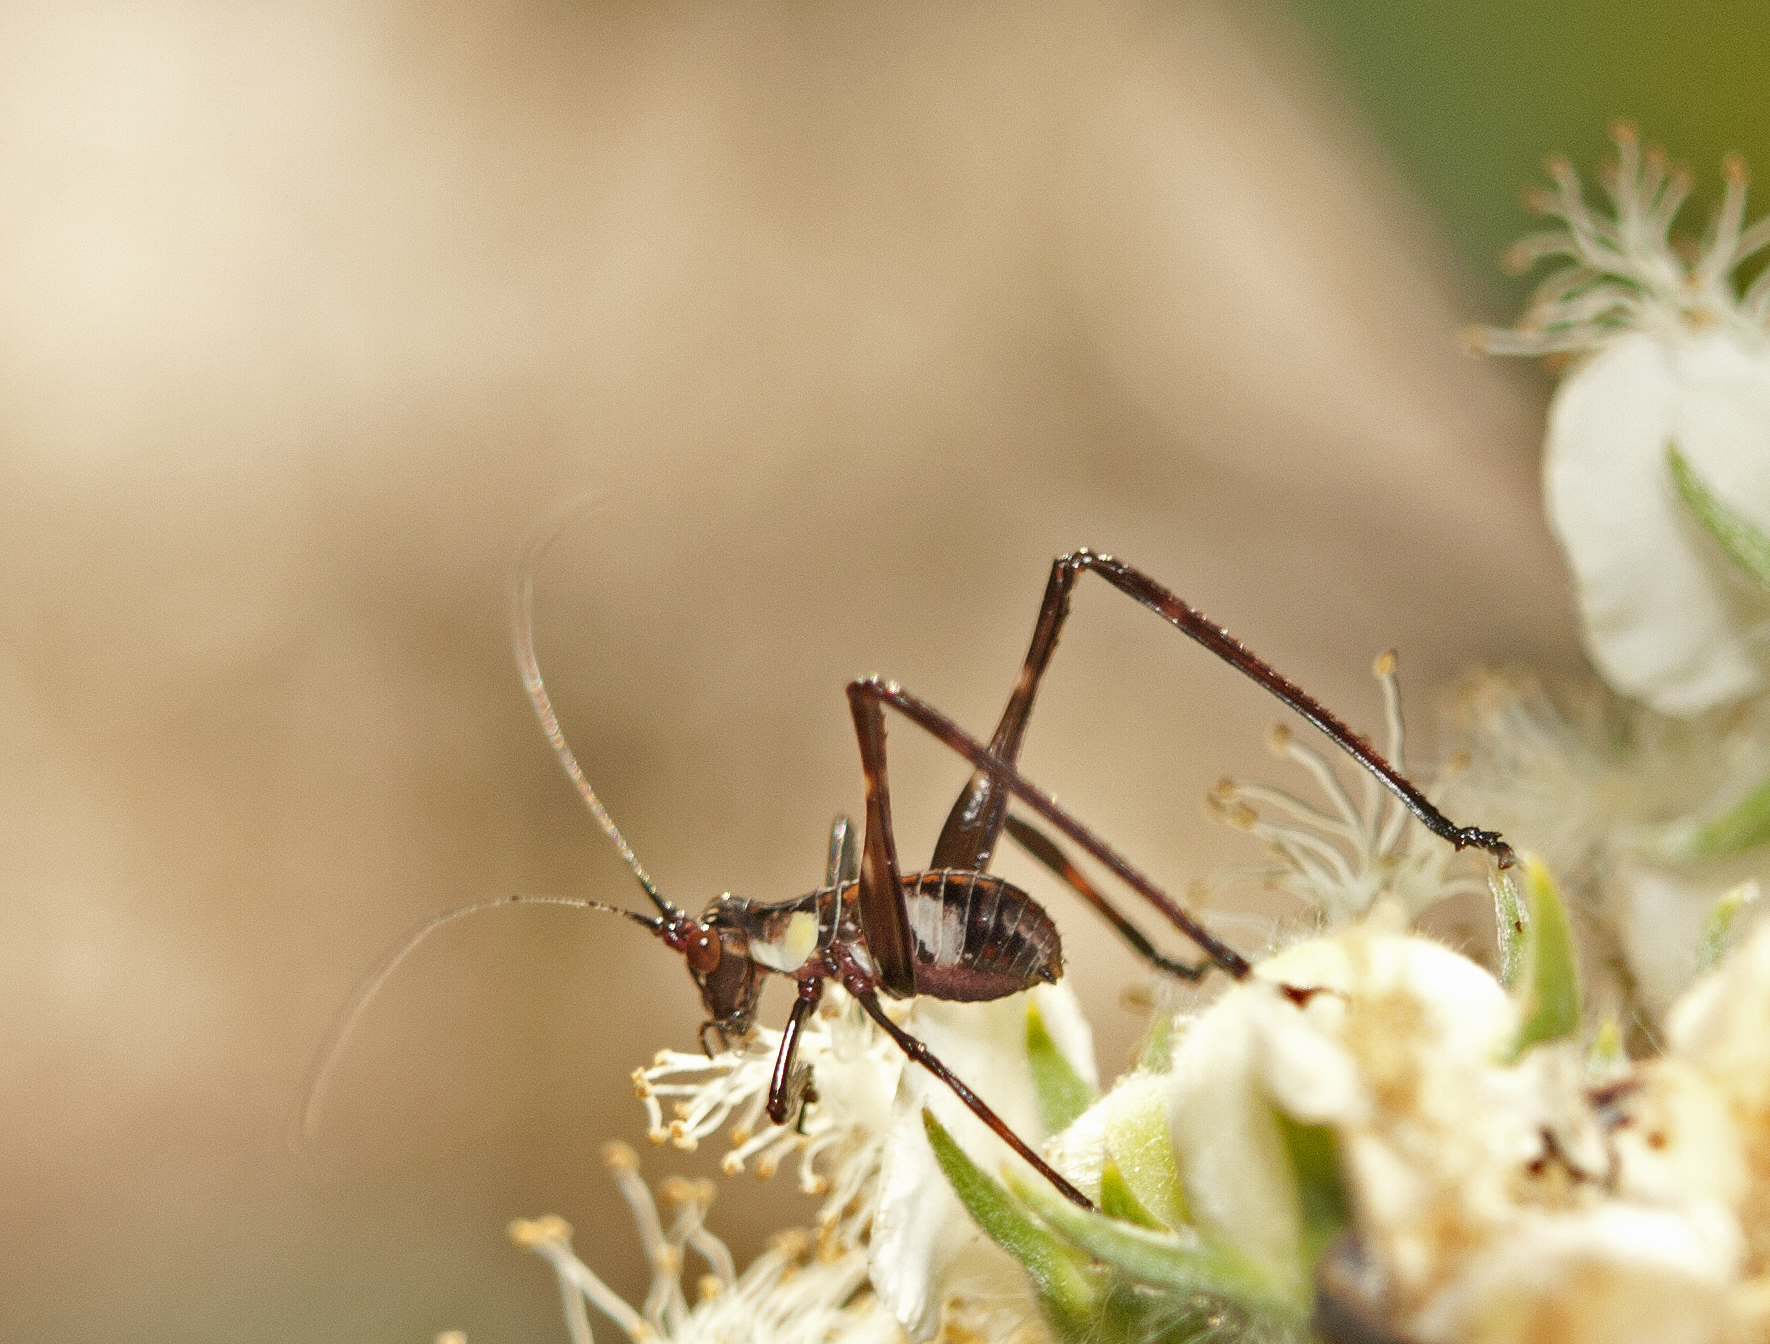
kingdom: Animalia
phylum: Arthropoda
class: Insecta
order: Orthoptera
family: Tettigoniidae
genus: Ephippitytha
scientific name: Ephippitytha trigintiduoguttata
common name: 32-spotted katydid
